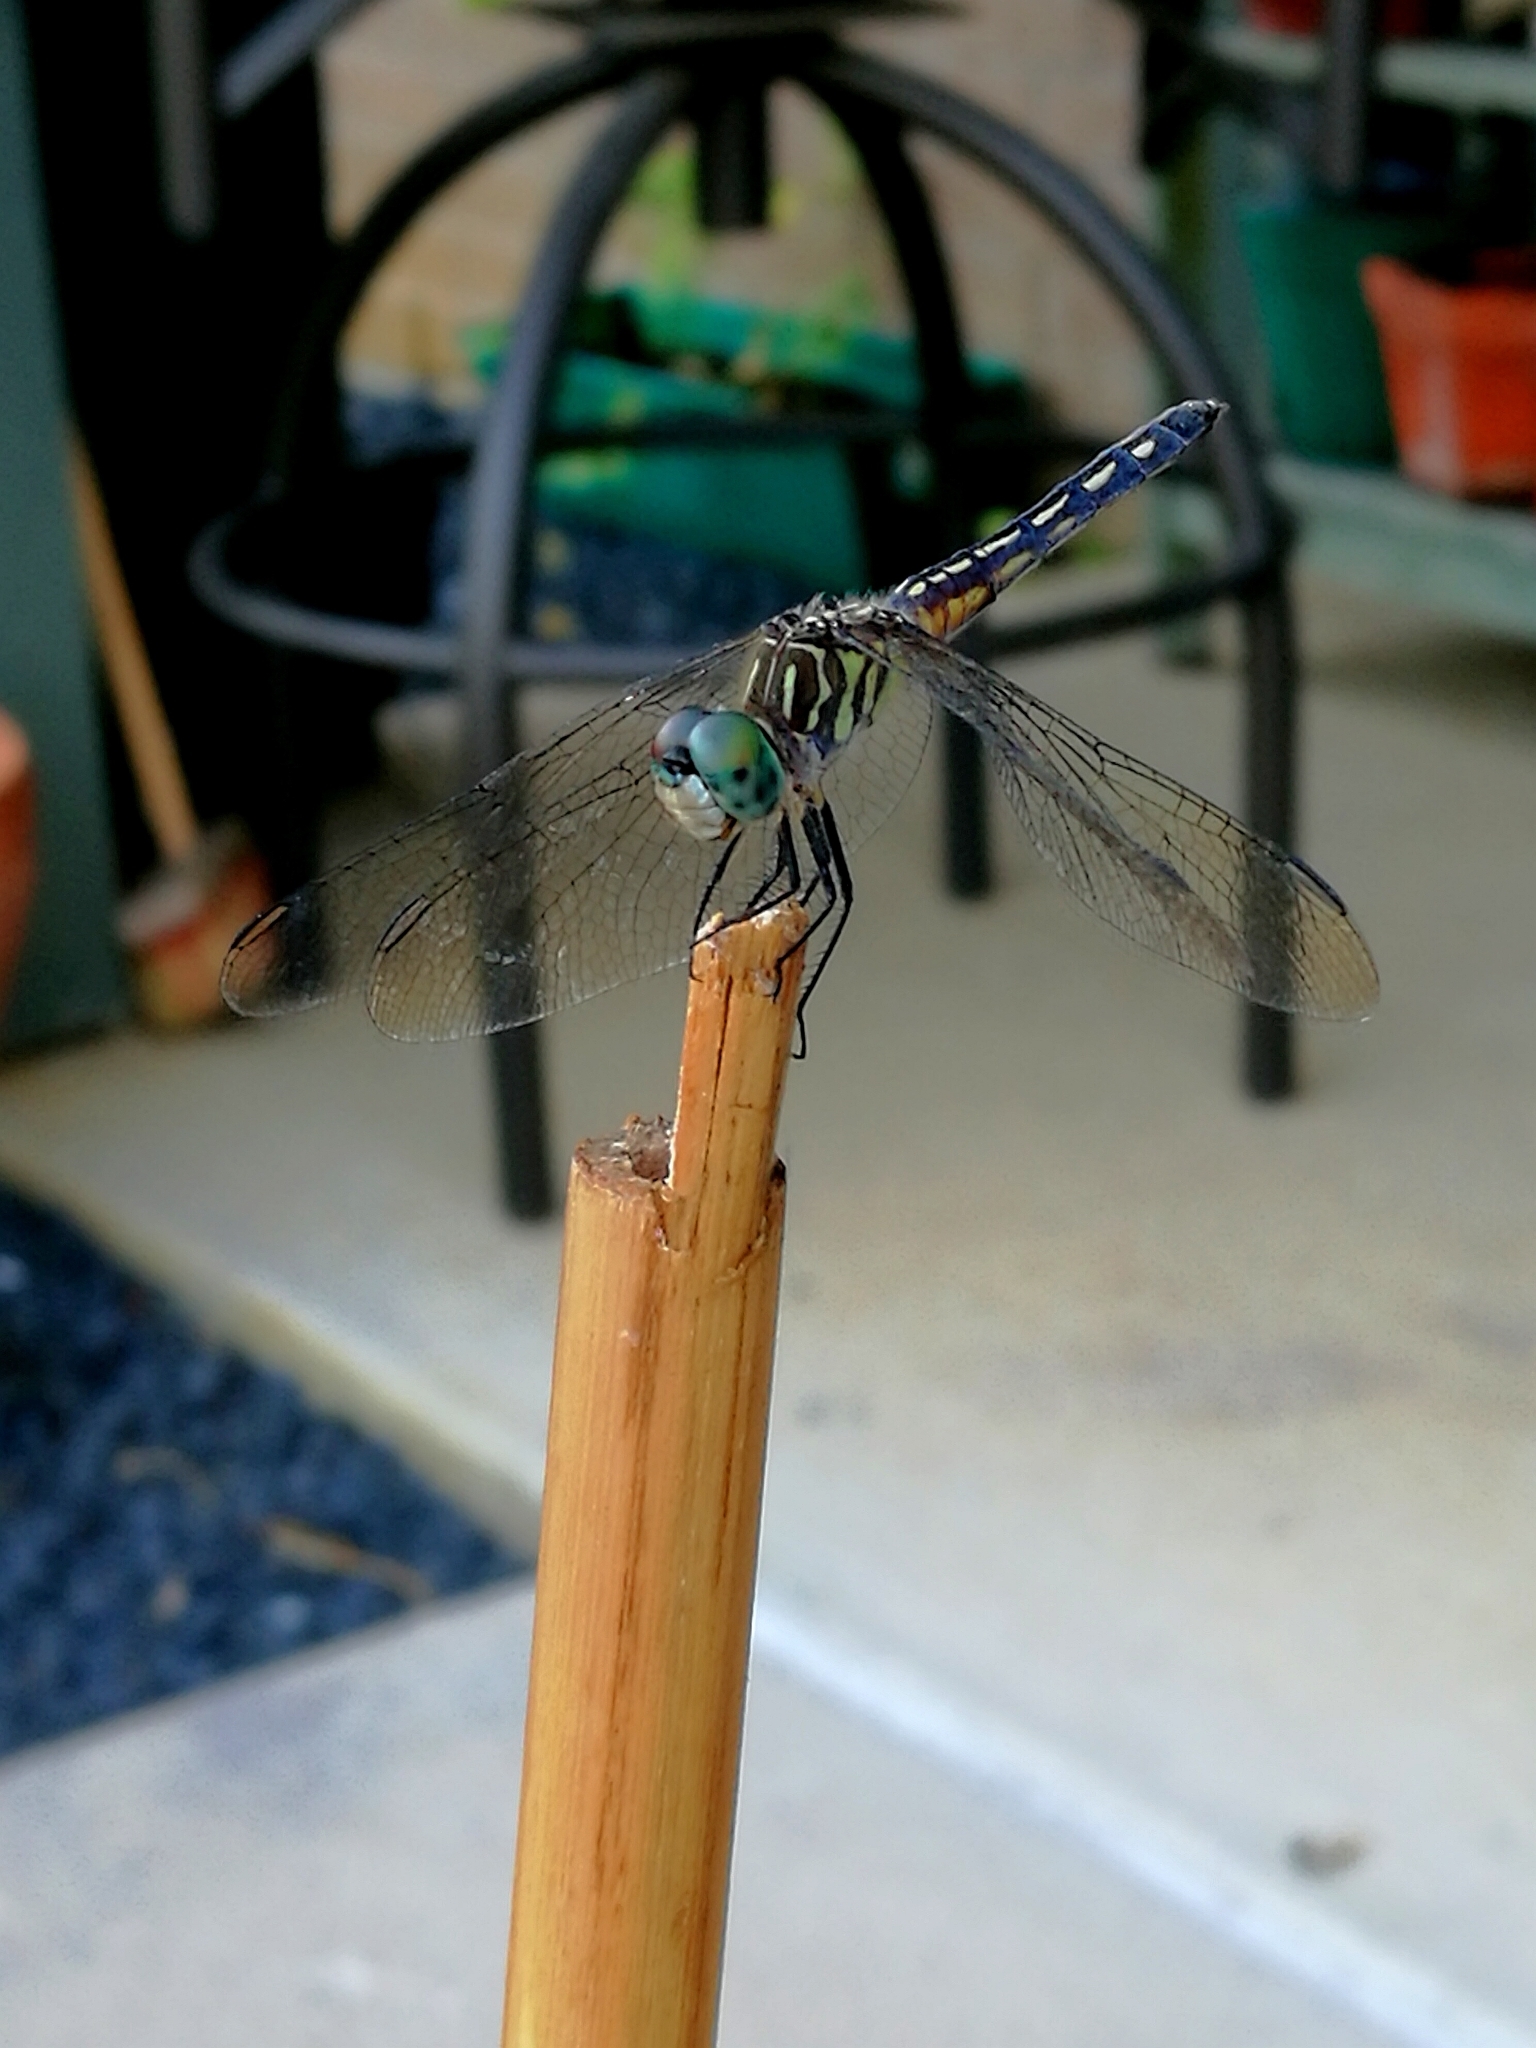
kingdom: Animalia
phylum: Arthropoda
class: Insecta
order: Odonata
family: Libellulidae
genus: Pachydiplax
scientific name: Pachydiplax longipennis
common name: Blue dasher
